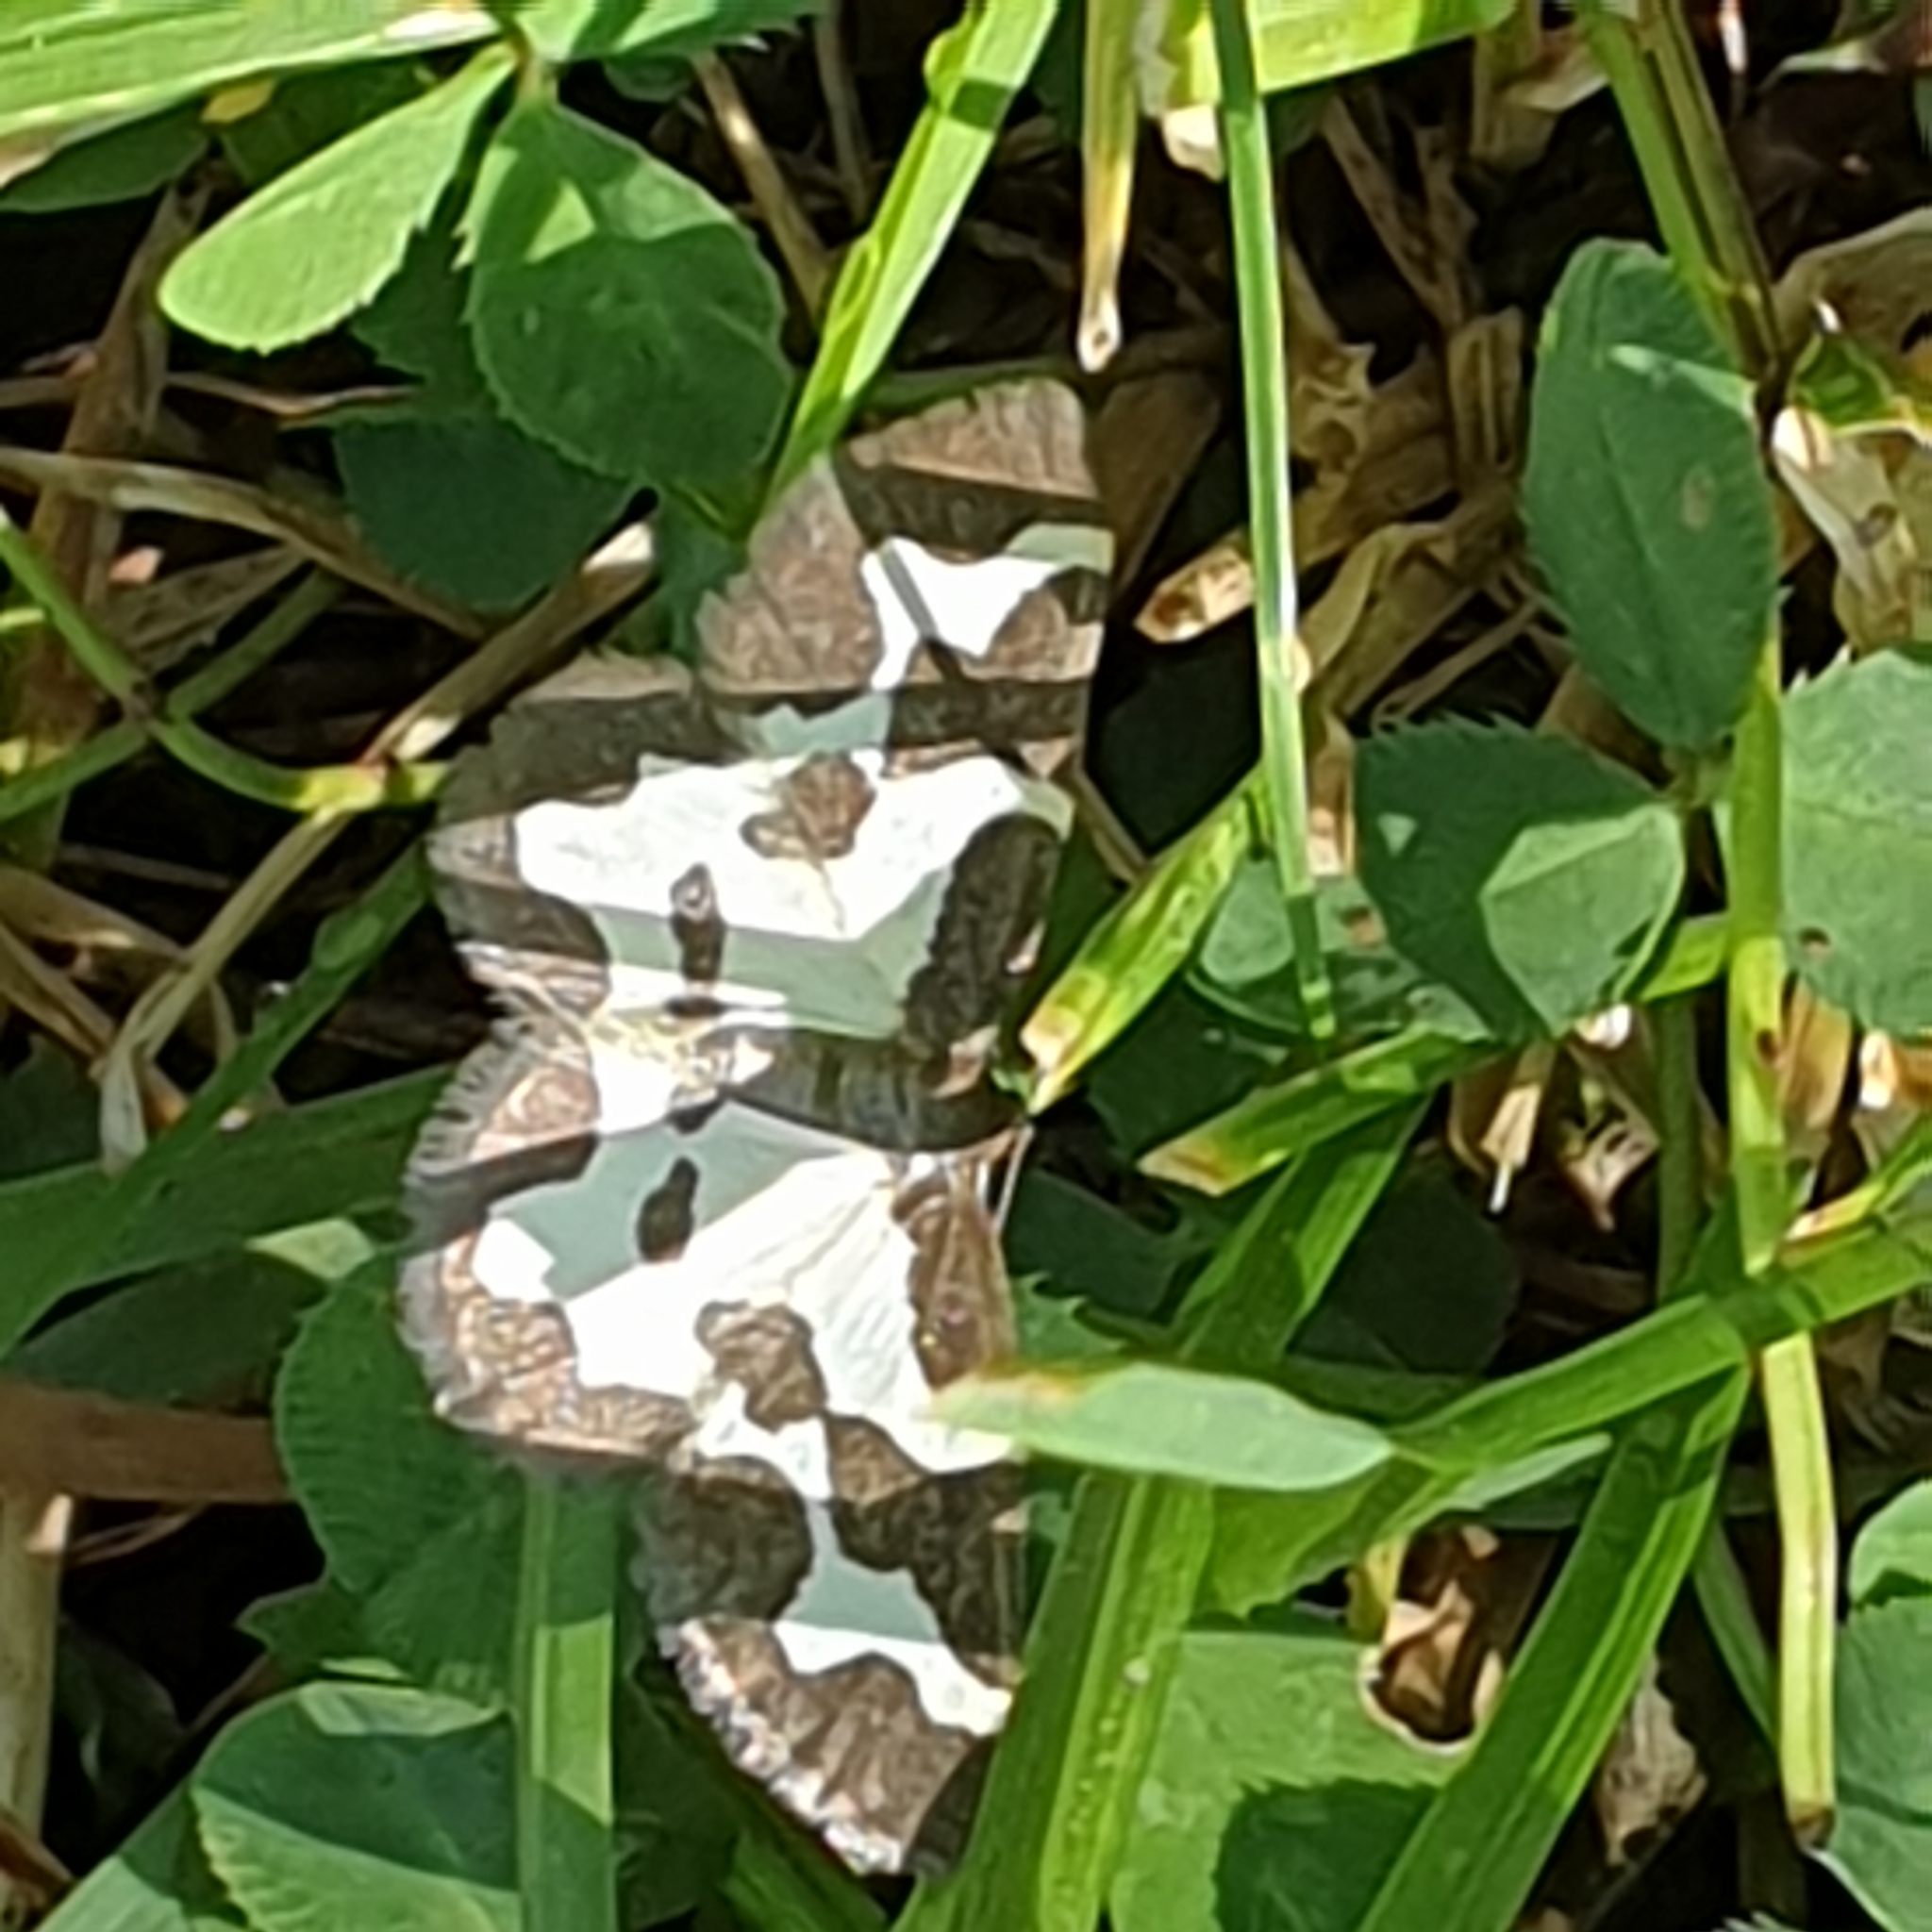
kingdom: Animalia
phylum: Arthropoda
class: Insecta
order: Lepidoptera
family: Geometridae
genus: Lomaspilis
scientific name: Lomaspilis marginata
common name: Clouded border
